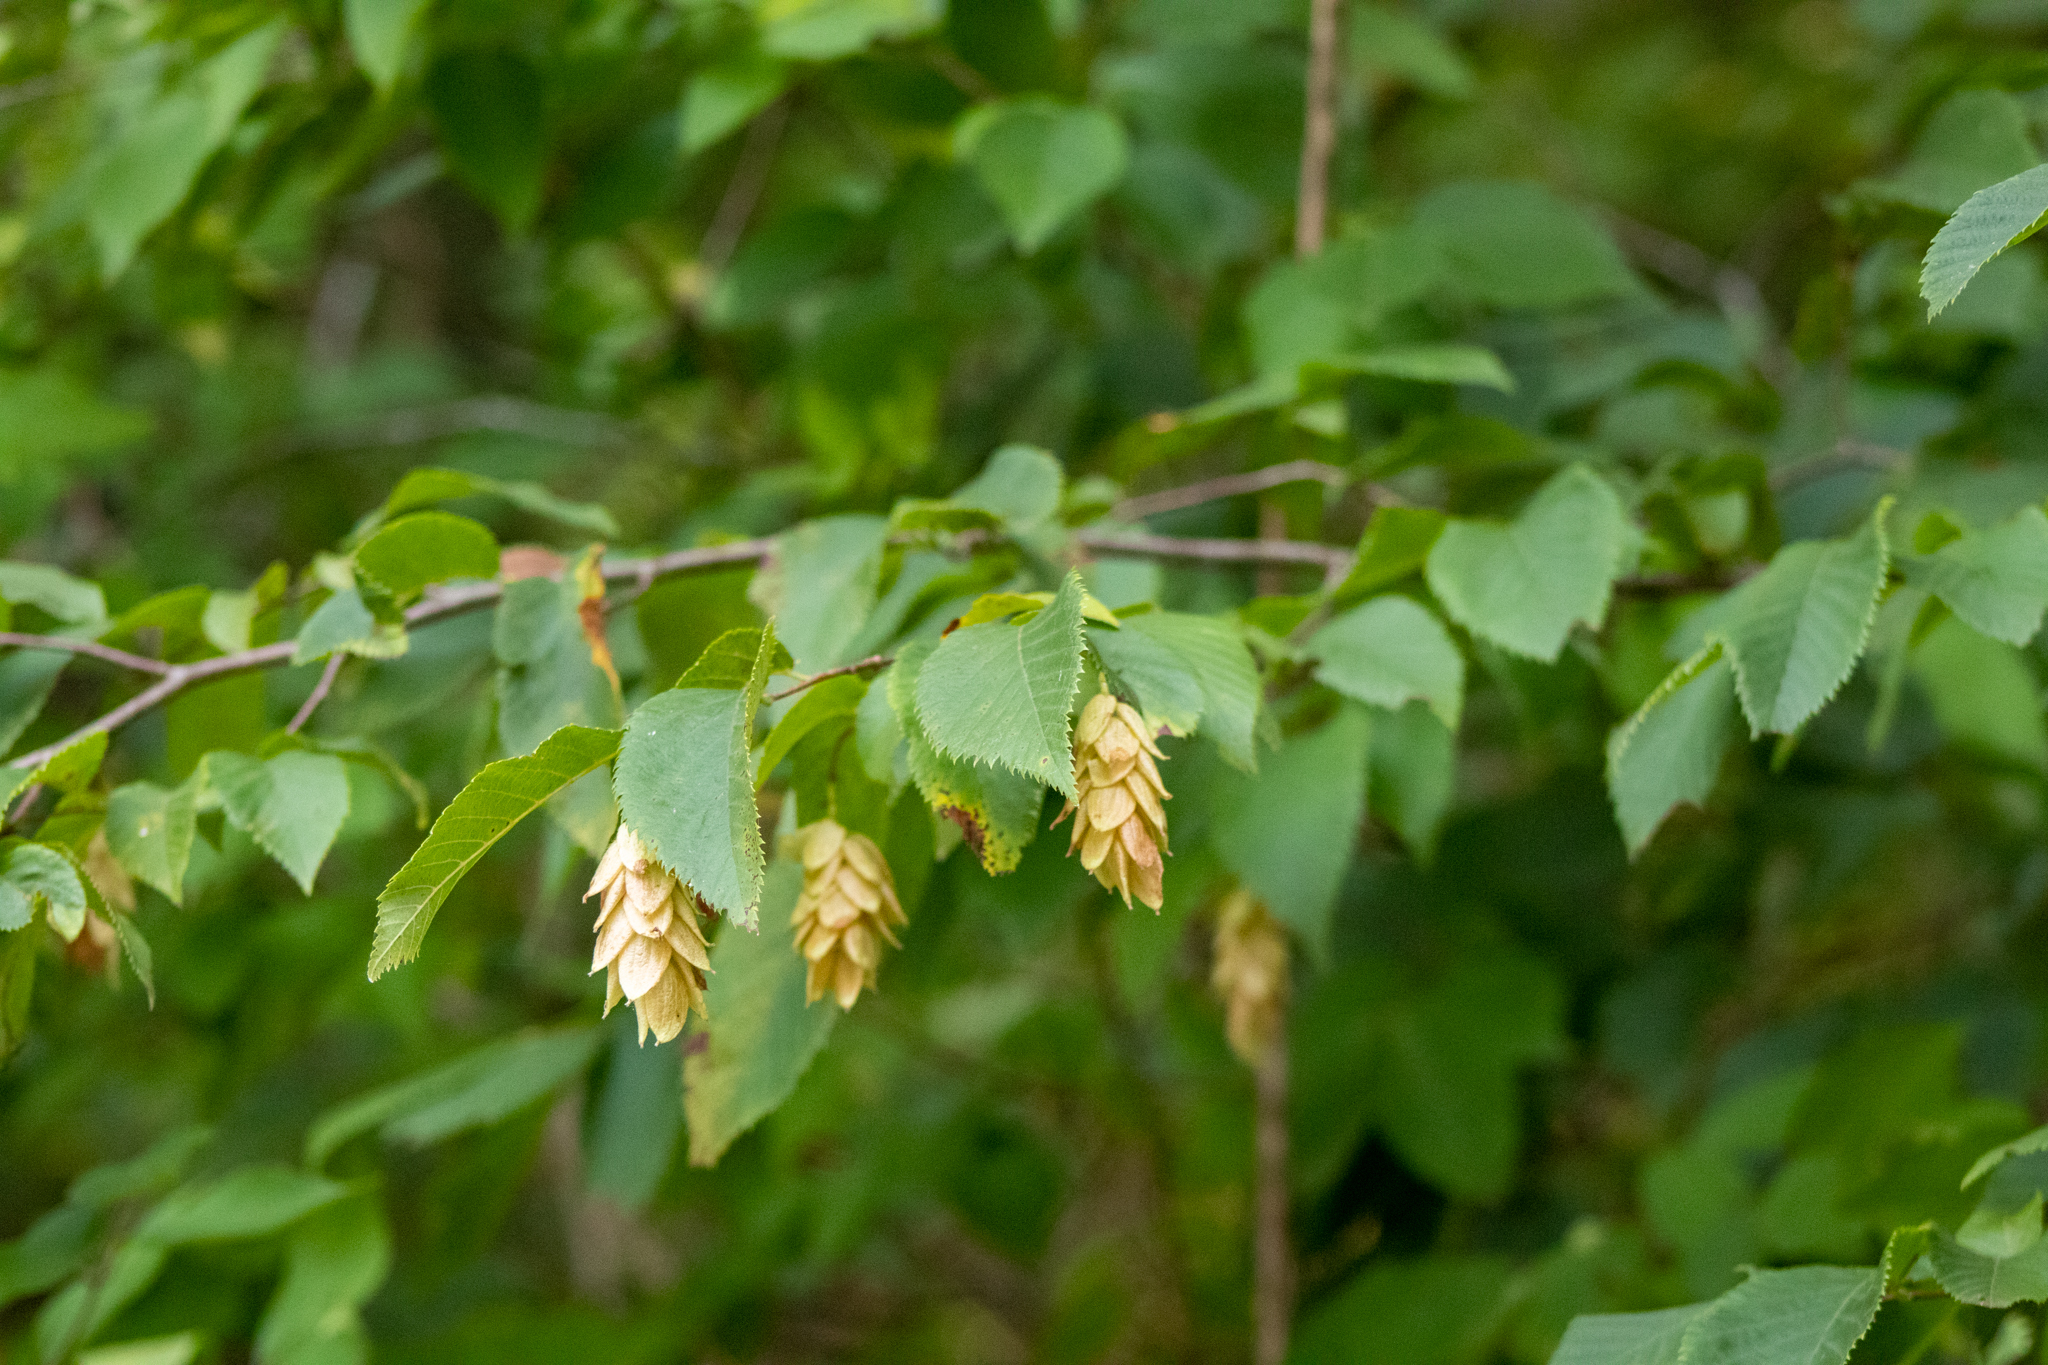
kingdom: Plantae
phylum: Tracheophyta
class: Magnoliopsida
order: Fagales
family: Betulaceae
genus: Ostrya
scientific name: Ostrya virginiana
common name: Ironwood
